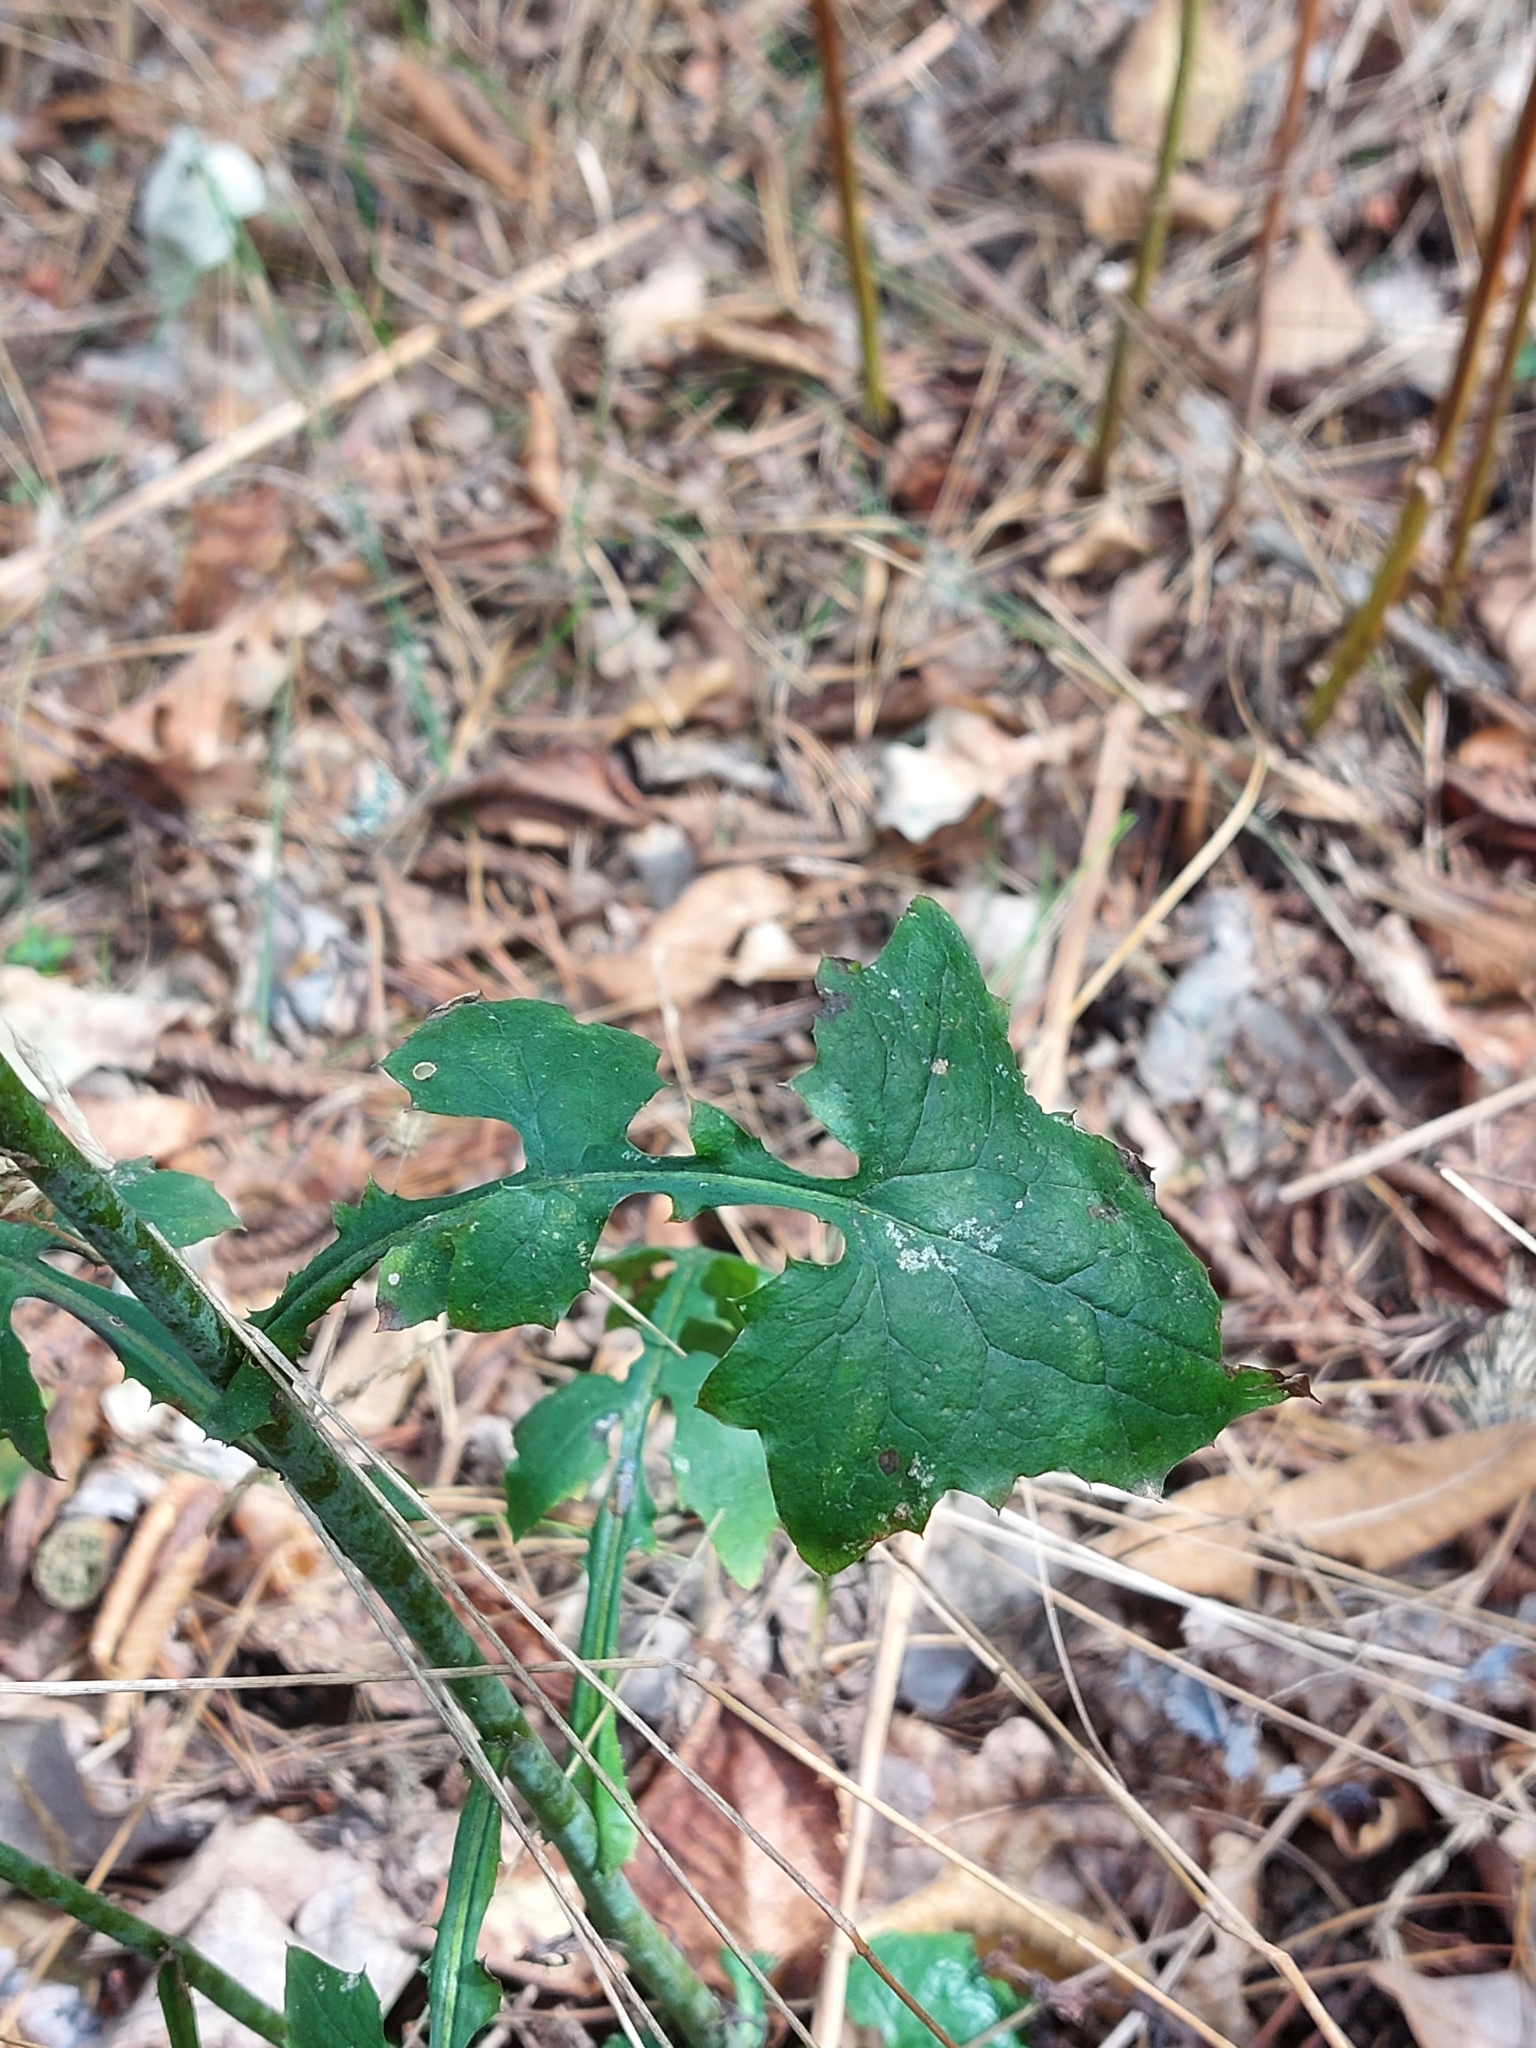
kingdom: Plantae
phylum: Tracheophyta
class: Magnoliopsida
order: Asterales
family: Asteraceae
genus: Mycelis
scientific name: Mycelis muralis
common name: Wall lettuce
